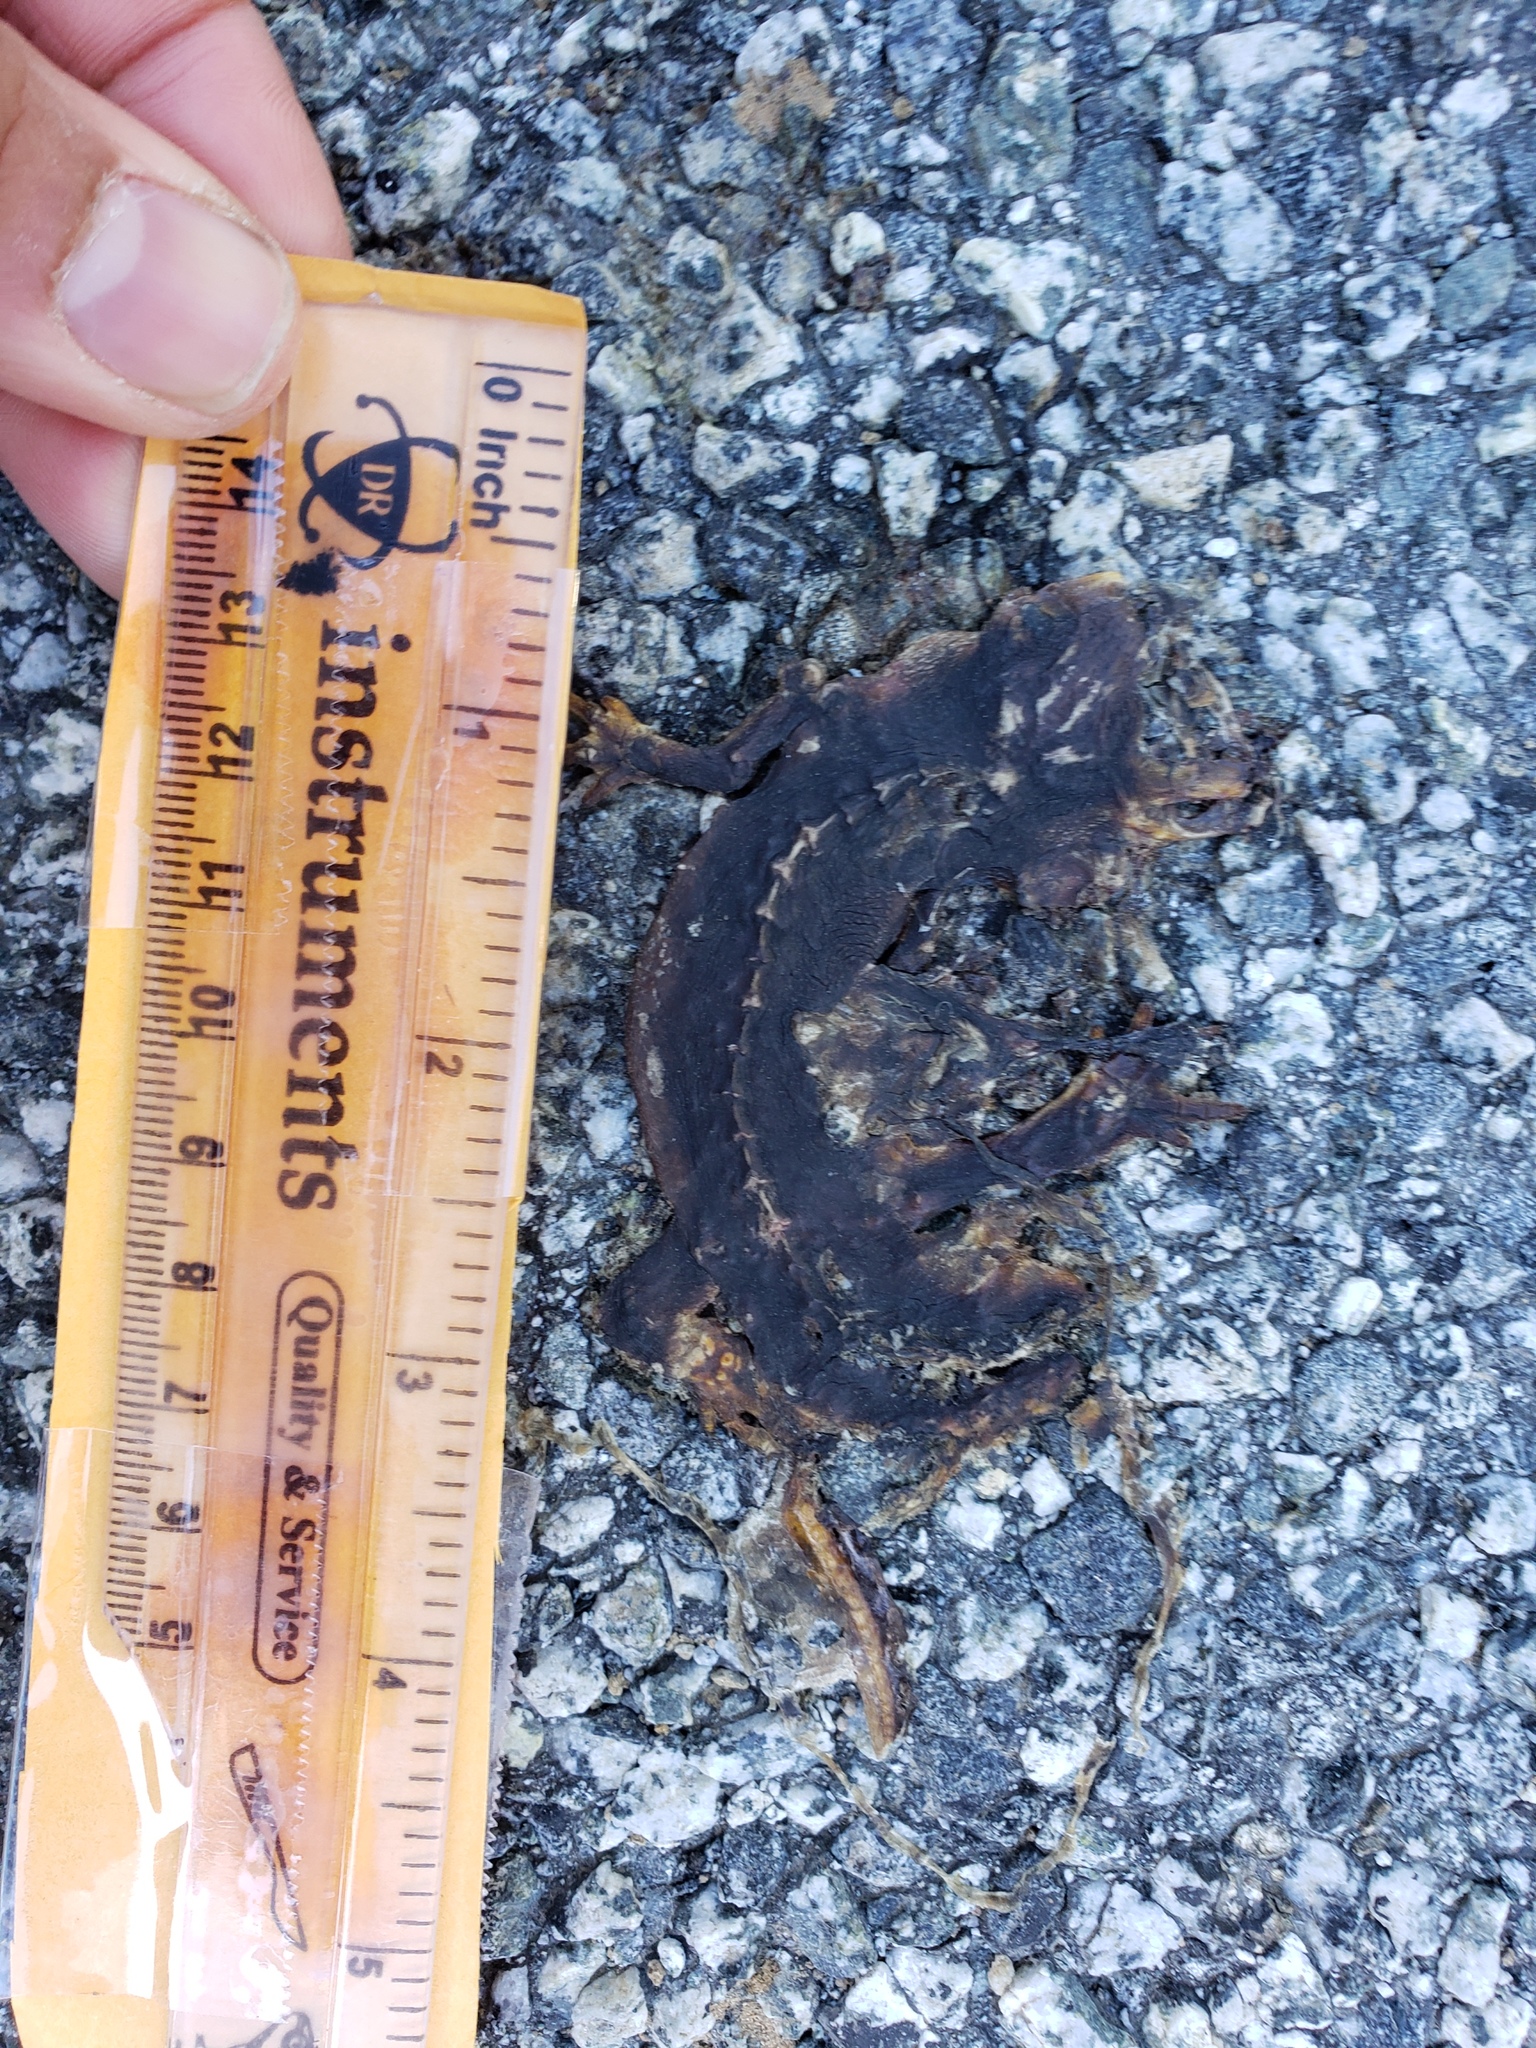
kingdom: Animalia
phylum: Chordata
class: Amphibia
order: Caudata
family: Salamandridae
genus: Taricha
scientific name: Taricha
